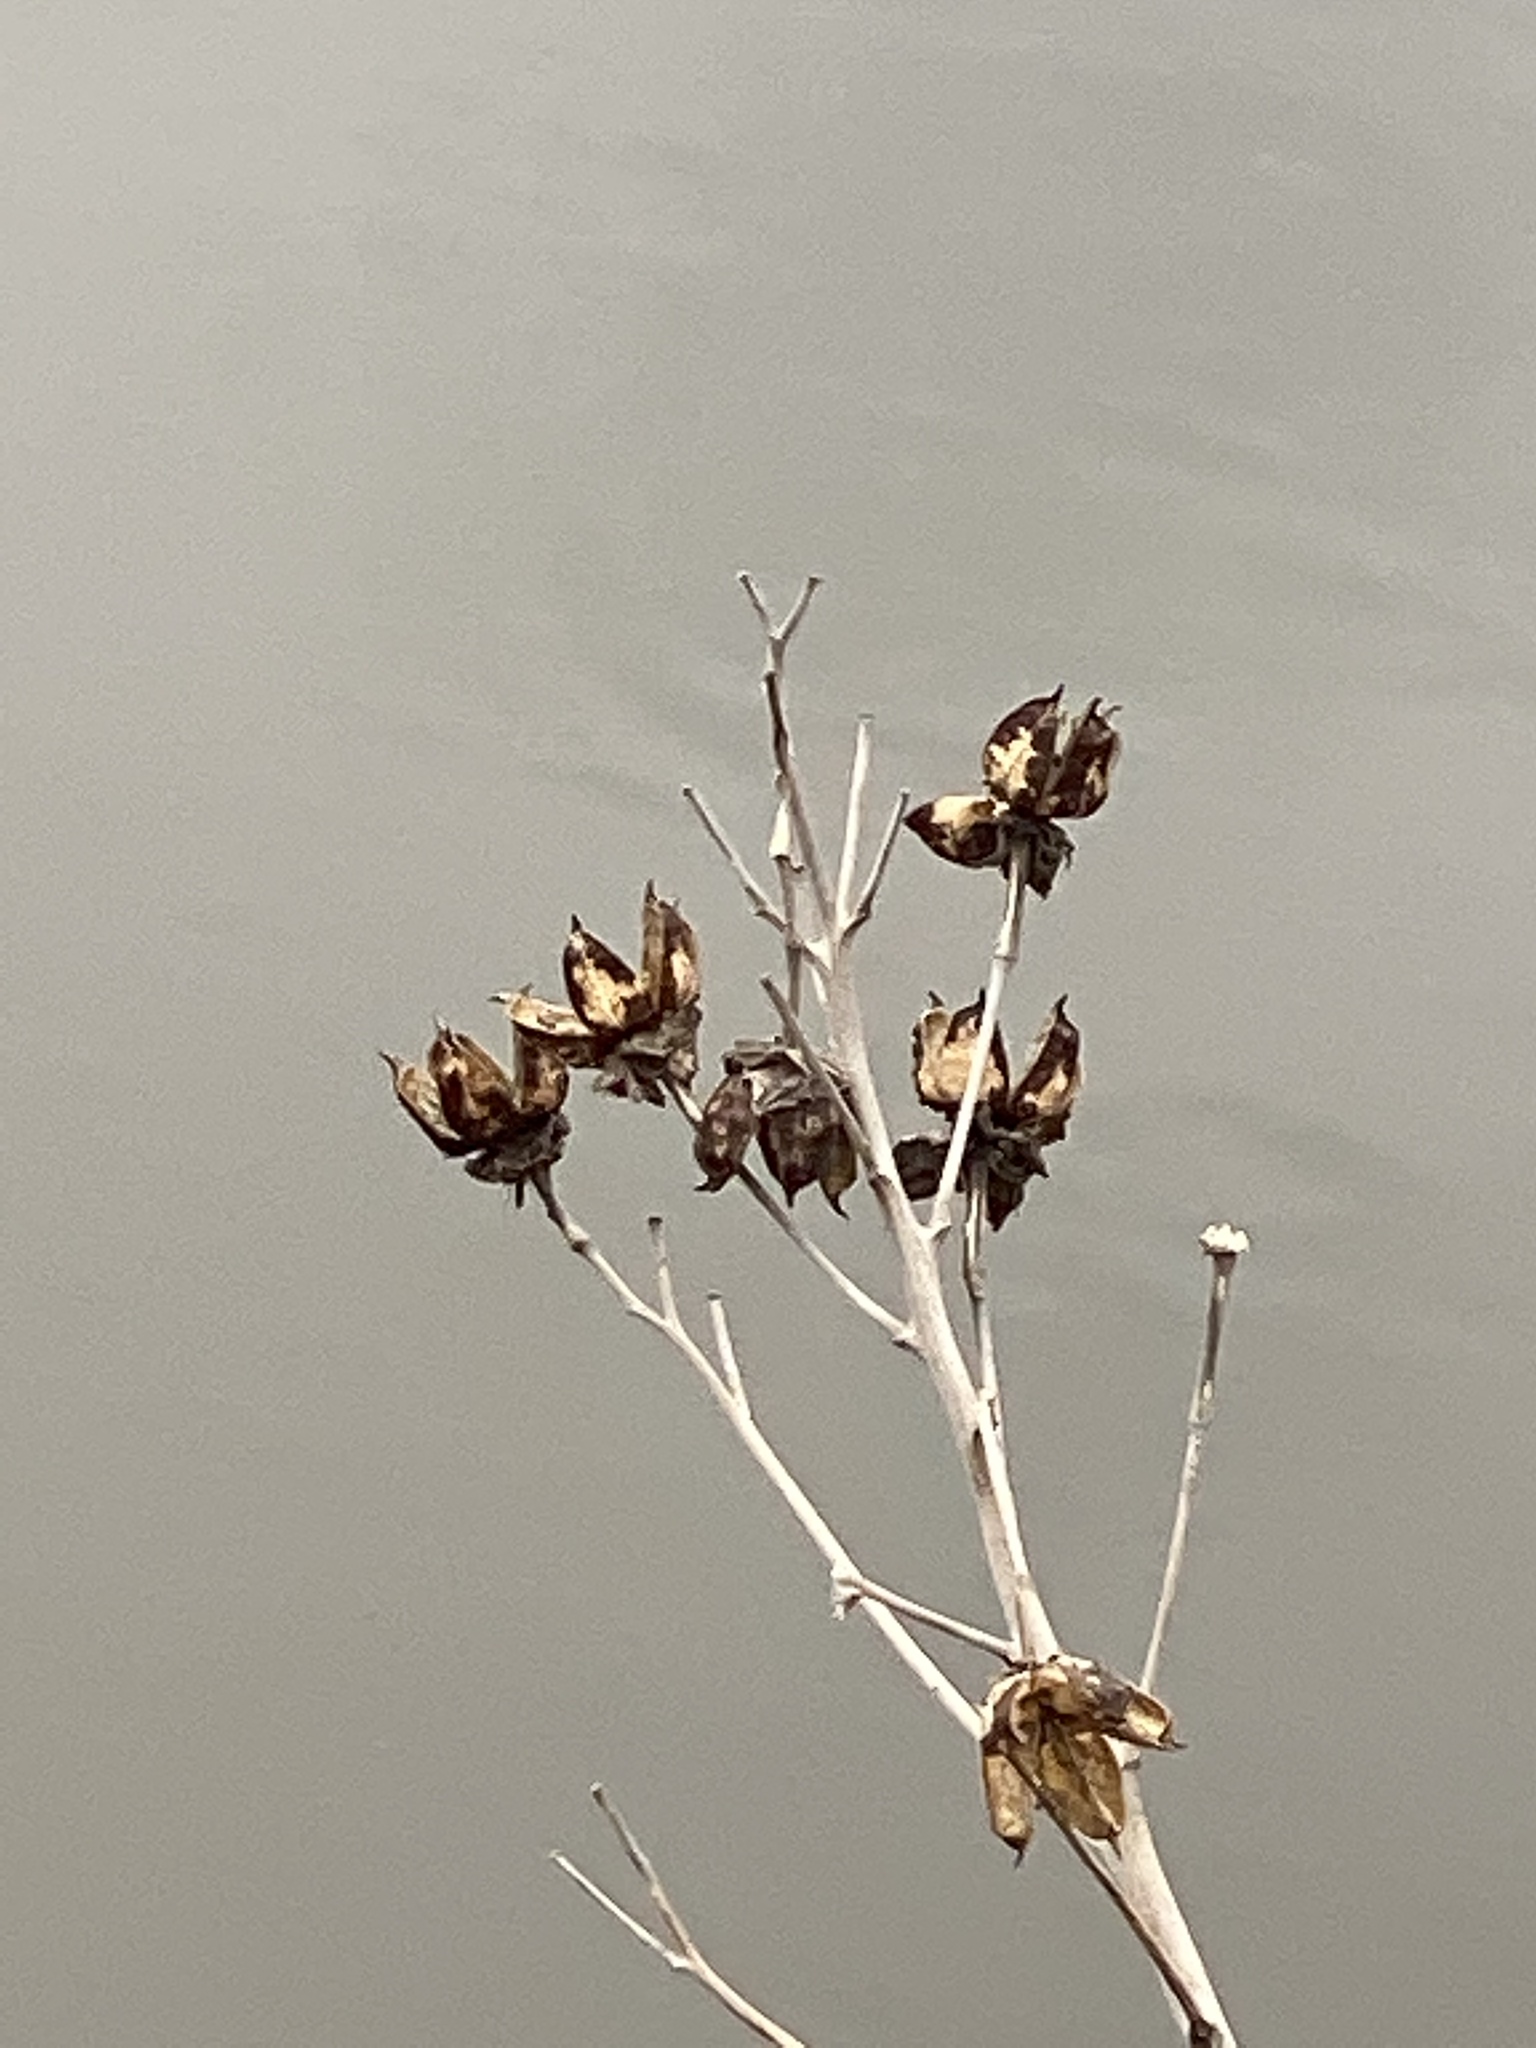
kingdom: Plantae
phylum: Tracheophyta
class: Magnoliopsida
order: Malvales
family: Malvaceae
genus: Hibiscus
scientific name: Hibiscus moscheutos
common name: Common rose-mallow
